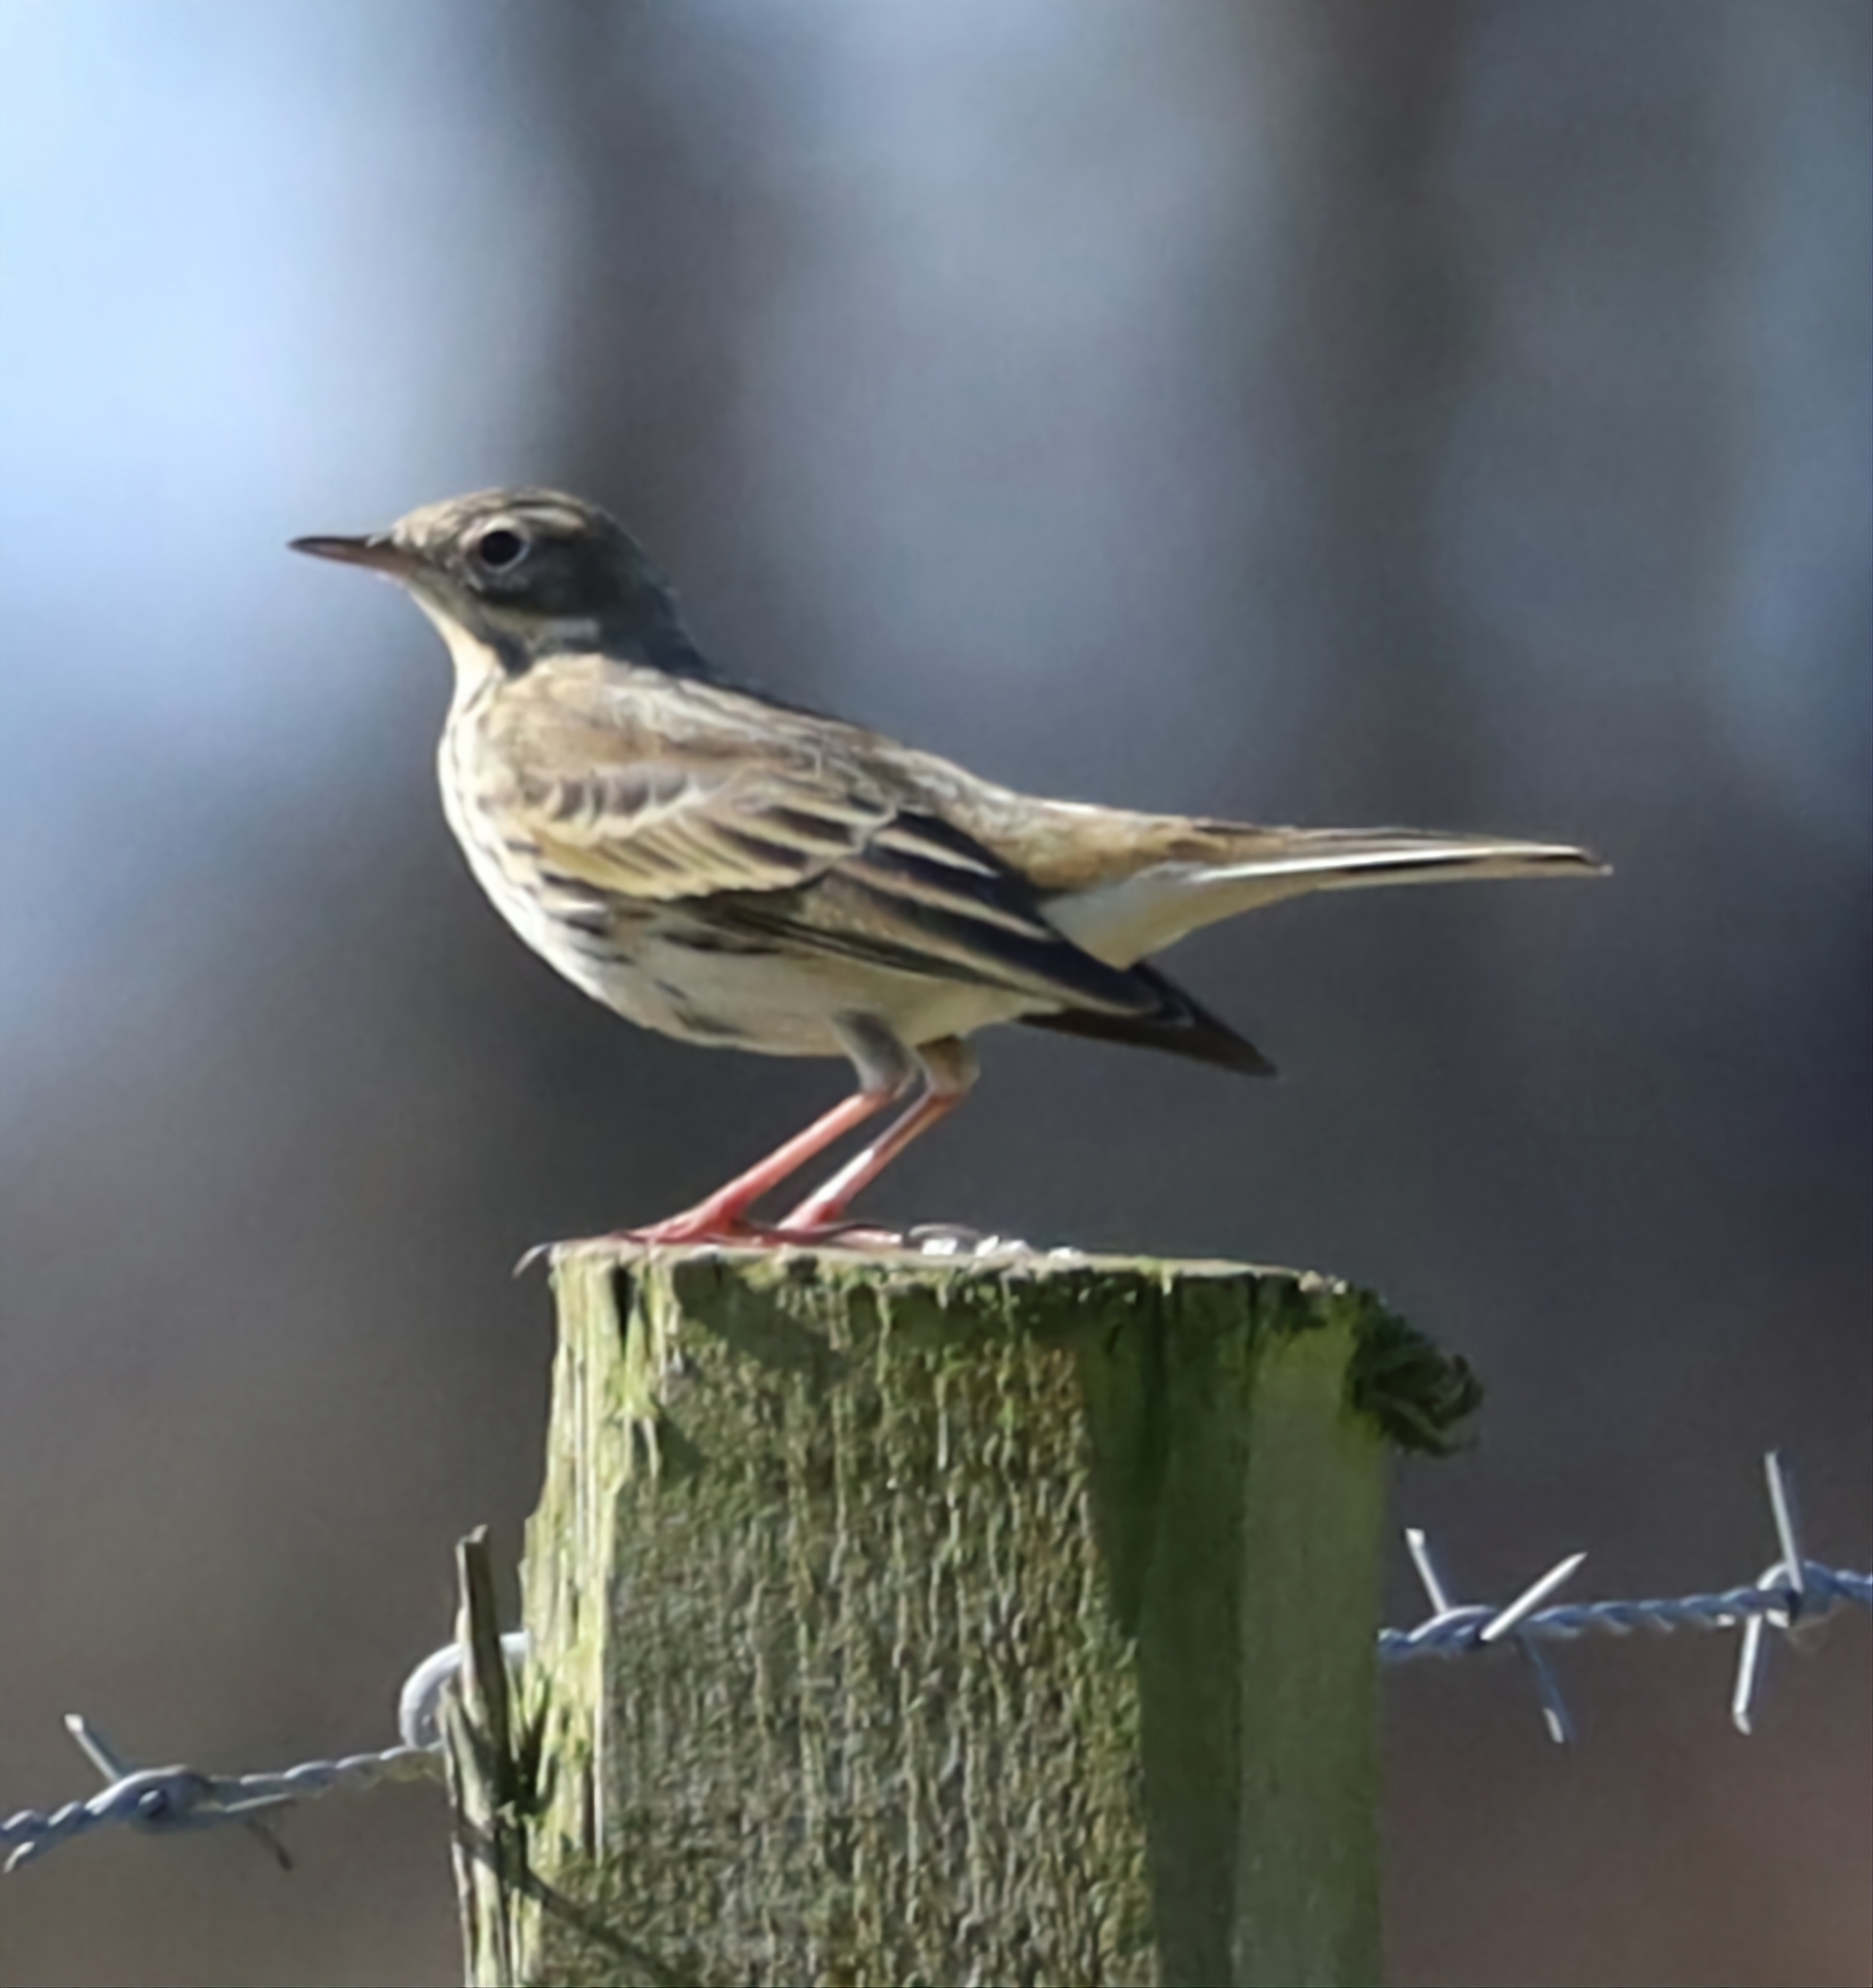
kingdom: Animalia
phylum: Chordata
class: Aves
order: Passeriformes
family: Motacillidae
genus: Anthus
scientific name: Anthus pratensis
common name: Meadow pipit
